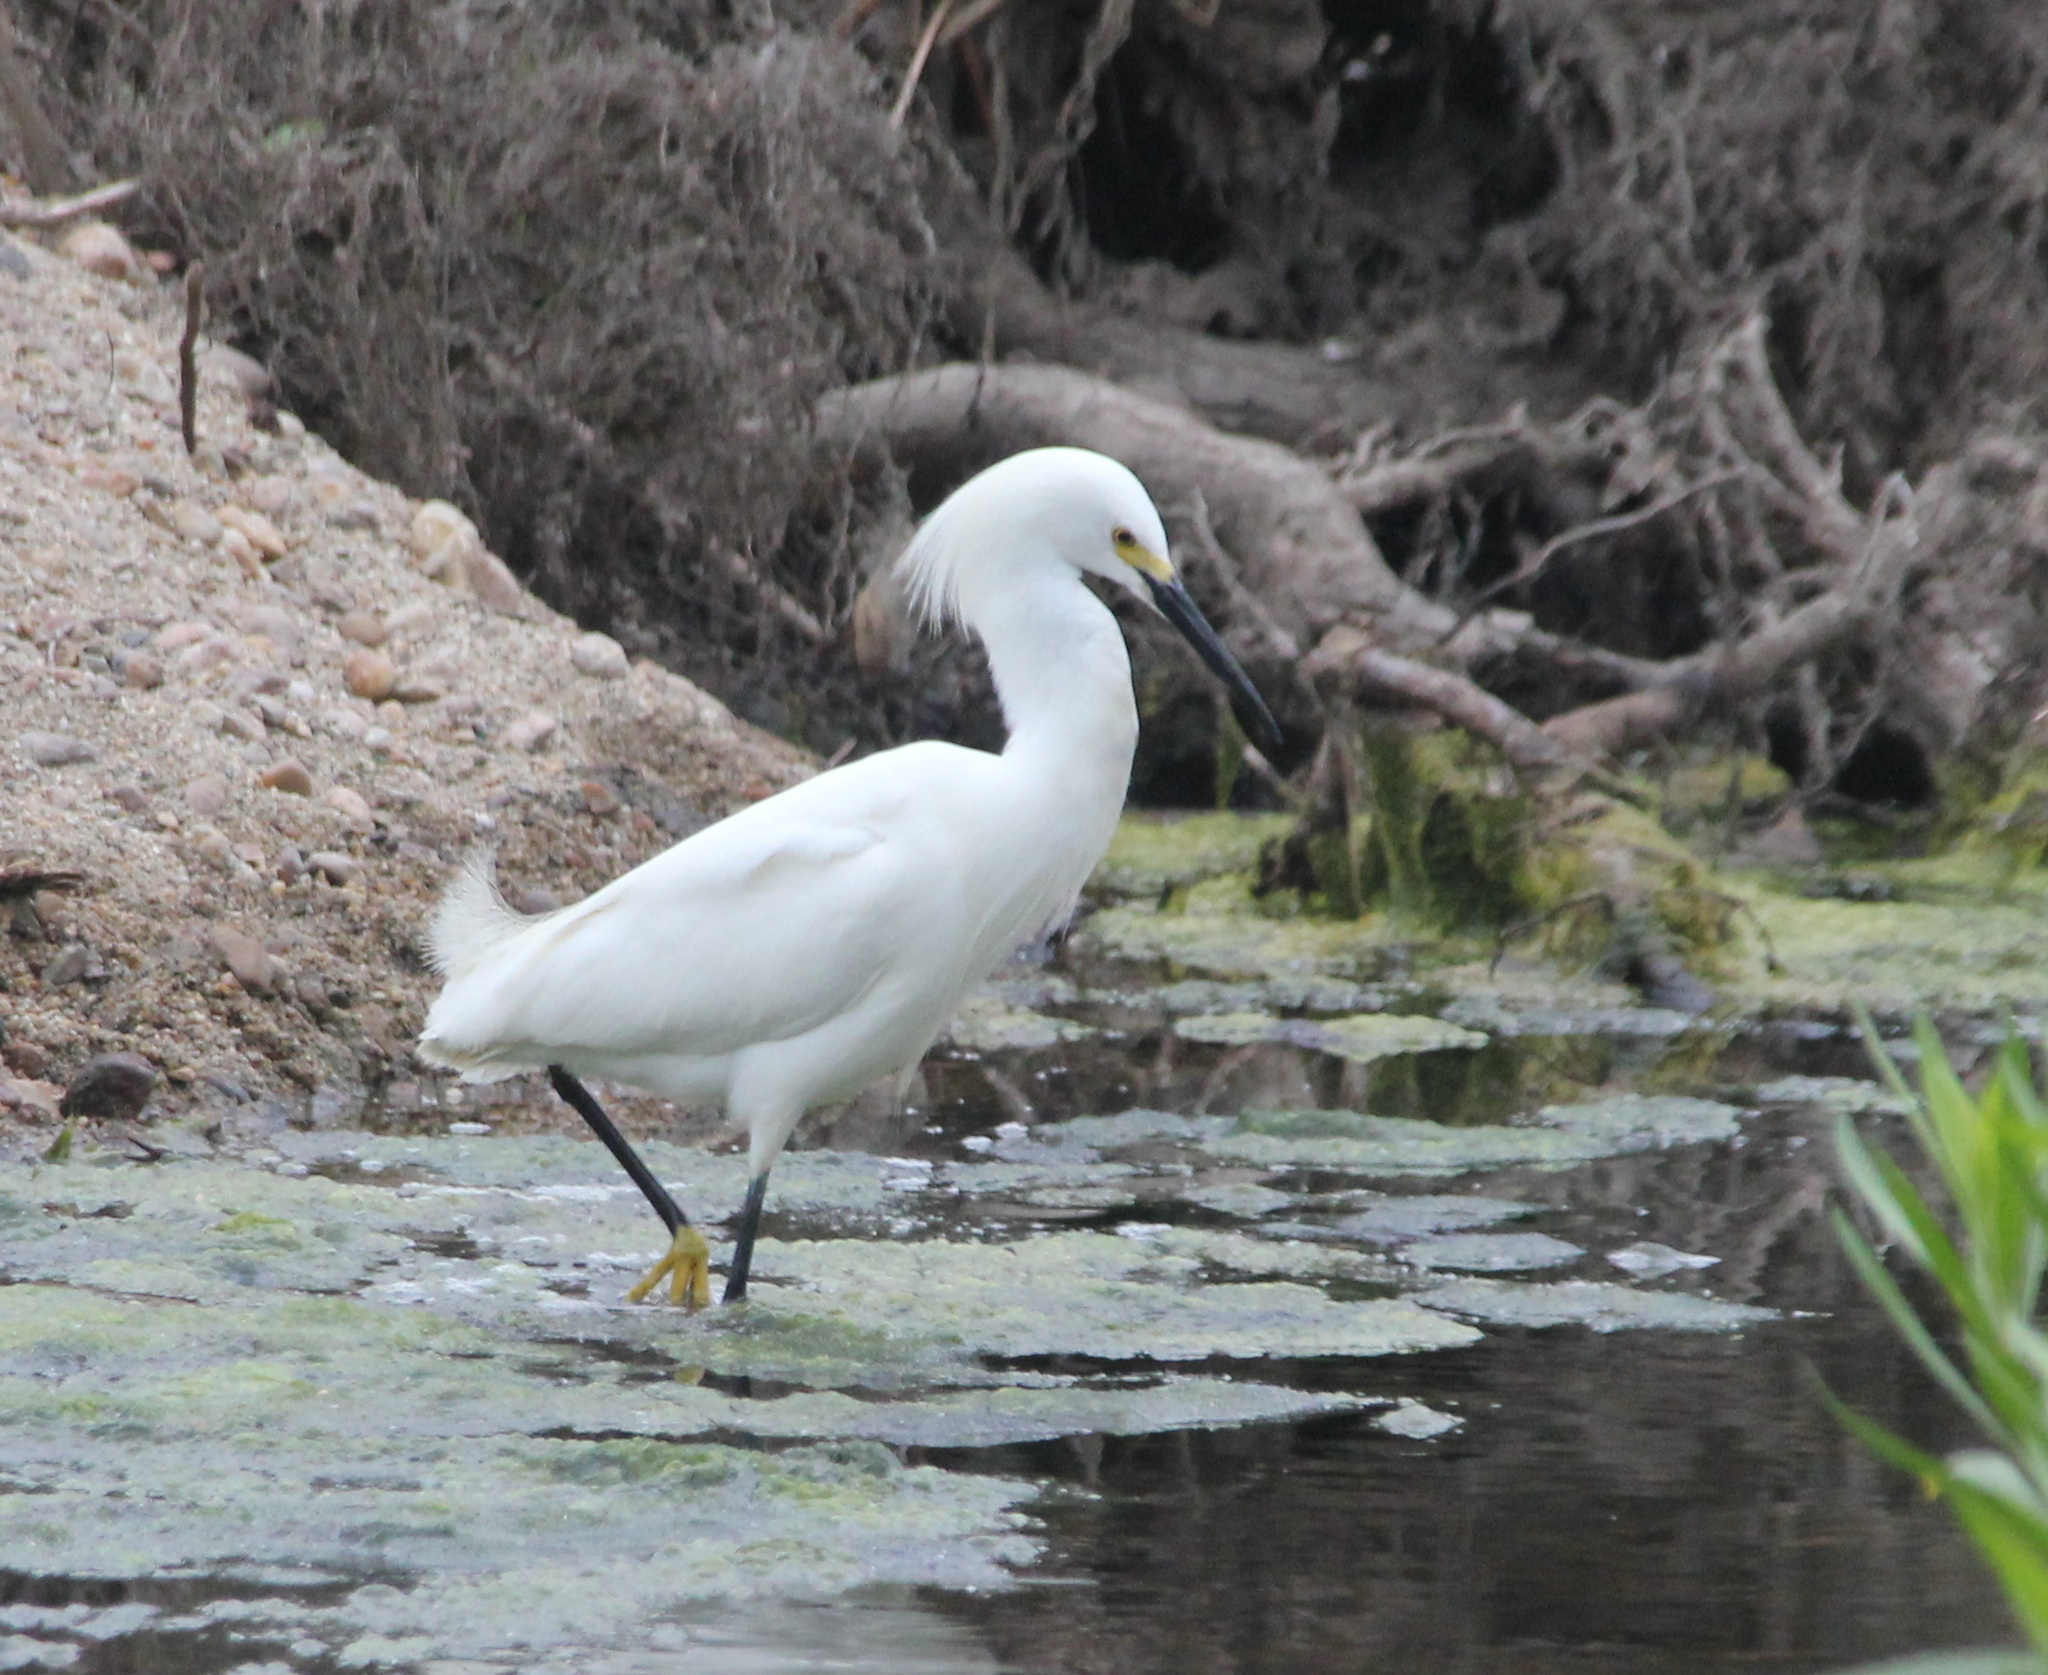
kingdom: Animalia
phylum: Chordata
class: Aves
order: Pelecaniformes
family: Ardeidae
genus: Egretta
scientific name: Egretta thula
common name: Snowy egret
